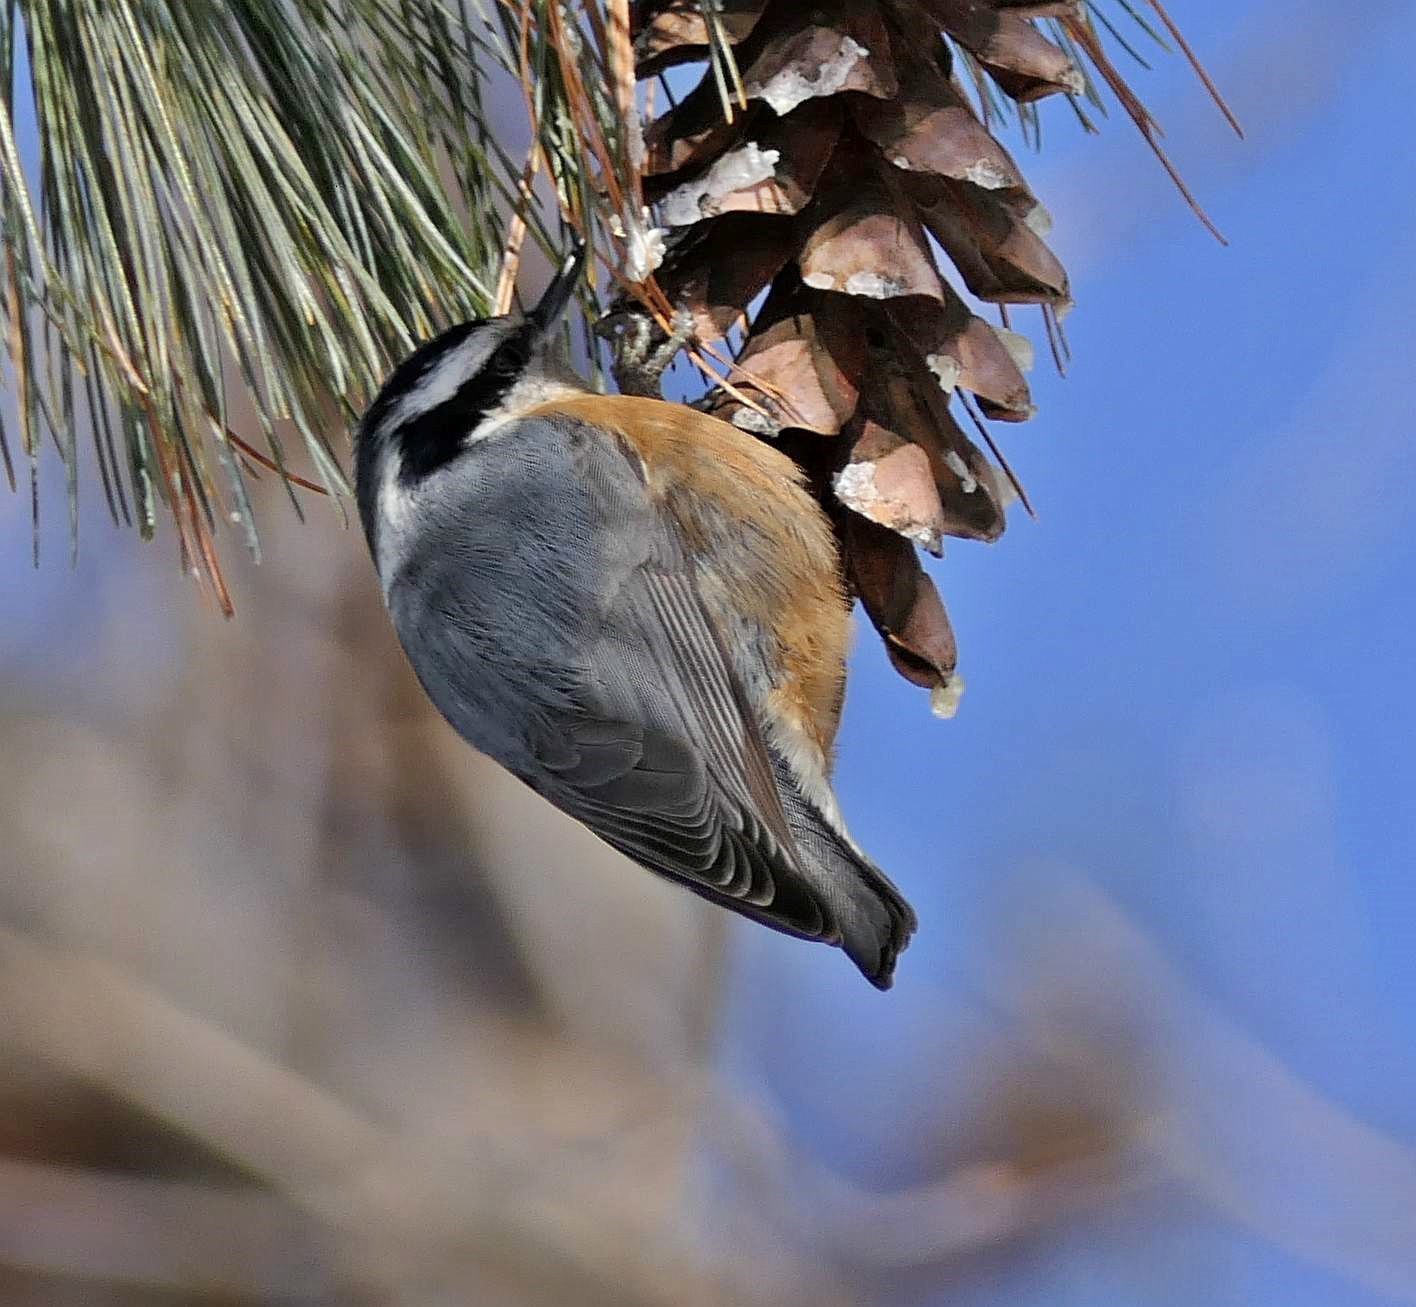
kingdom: Animalia
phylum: Chordata
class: Aves
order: Passeriformes
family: Sittidae
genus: Sitta
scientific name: Sitta canadensis
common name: Red-breasted nuthatch
